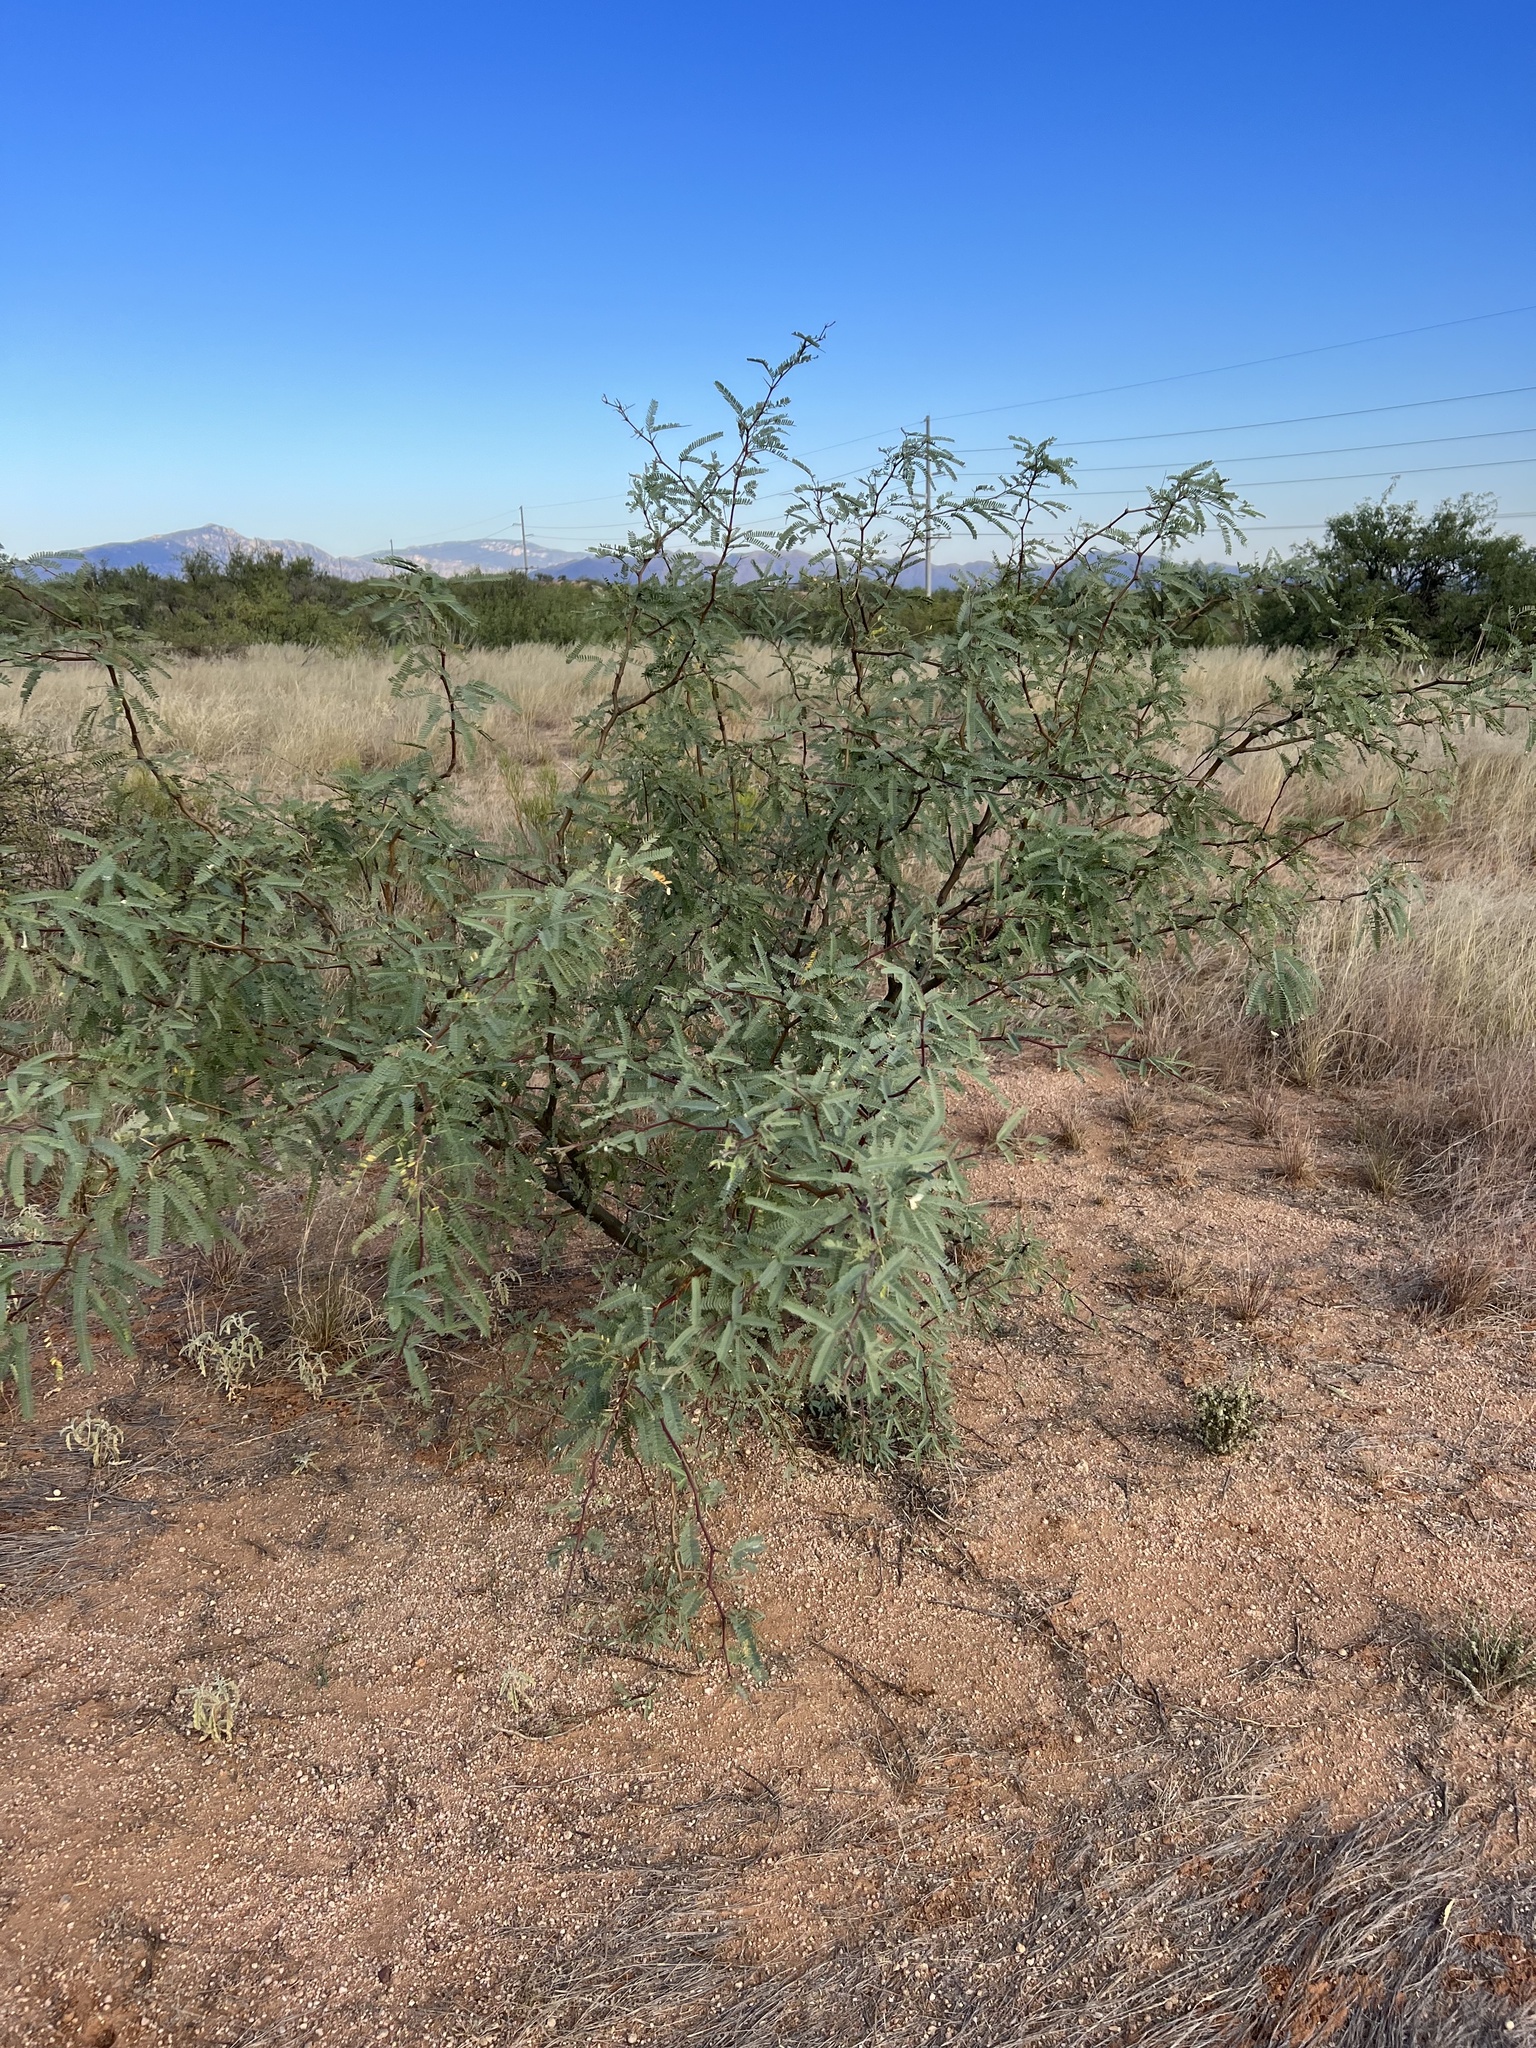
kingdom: Plantae
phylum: Tracheophyta
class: Magnoliopsida
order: Fabales
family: Fabaceae
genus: Prosopis
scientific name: Prosopis velutina
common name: Velvet mesquite
